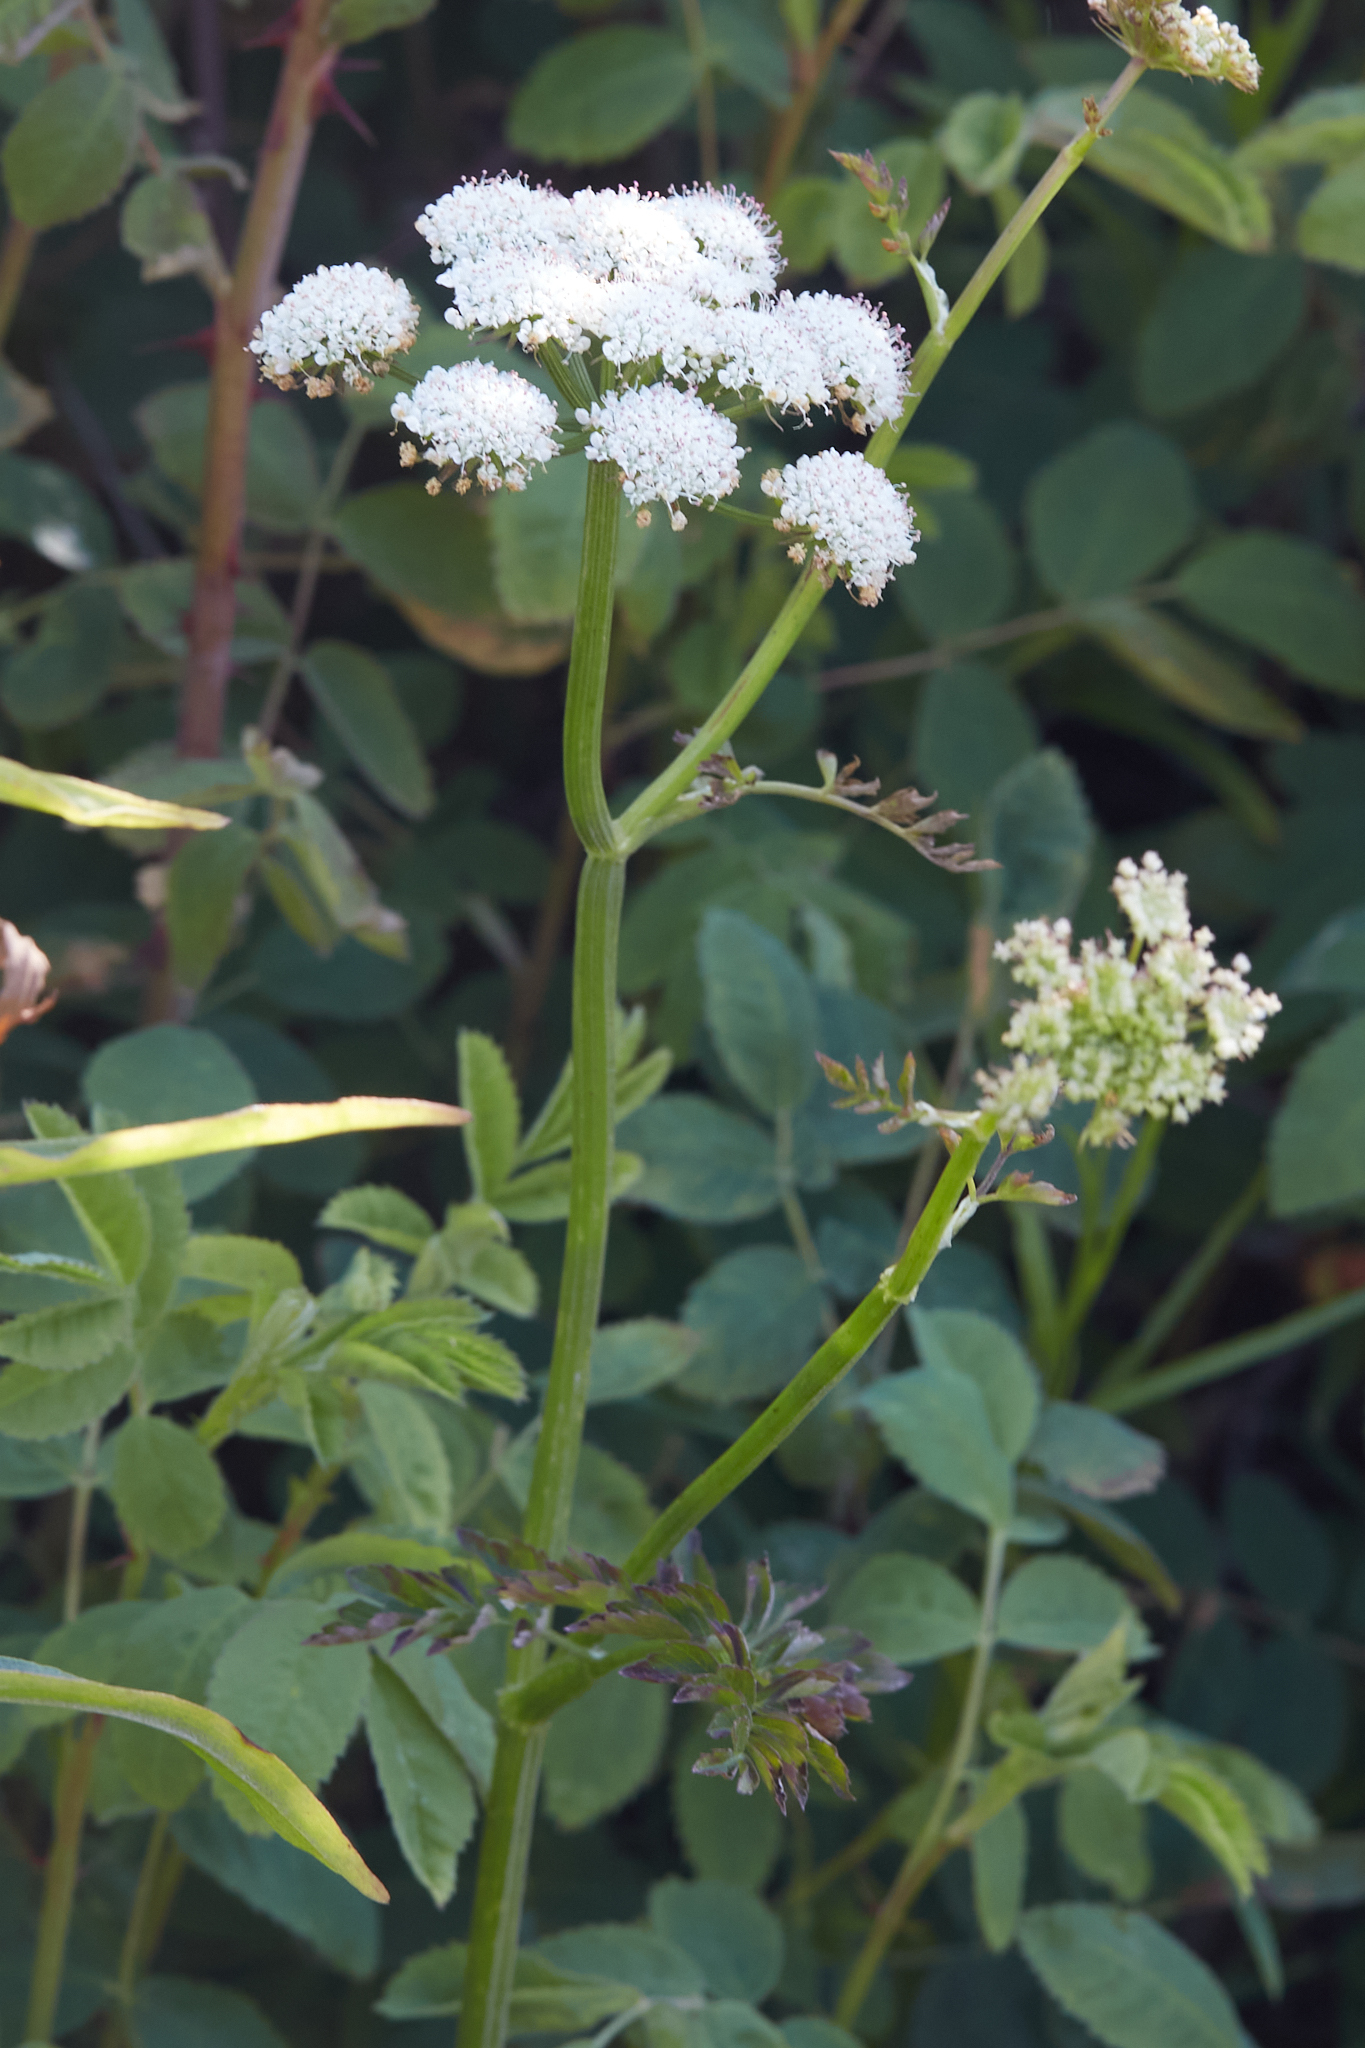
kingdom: Plantae
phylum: Tracheophyta
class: Magnoliopsida
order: Apiales
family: Apiaceae
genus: Oenanthe
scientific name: Oenanthe sarmentosa
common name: American water-parsley
